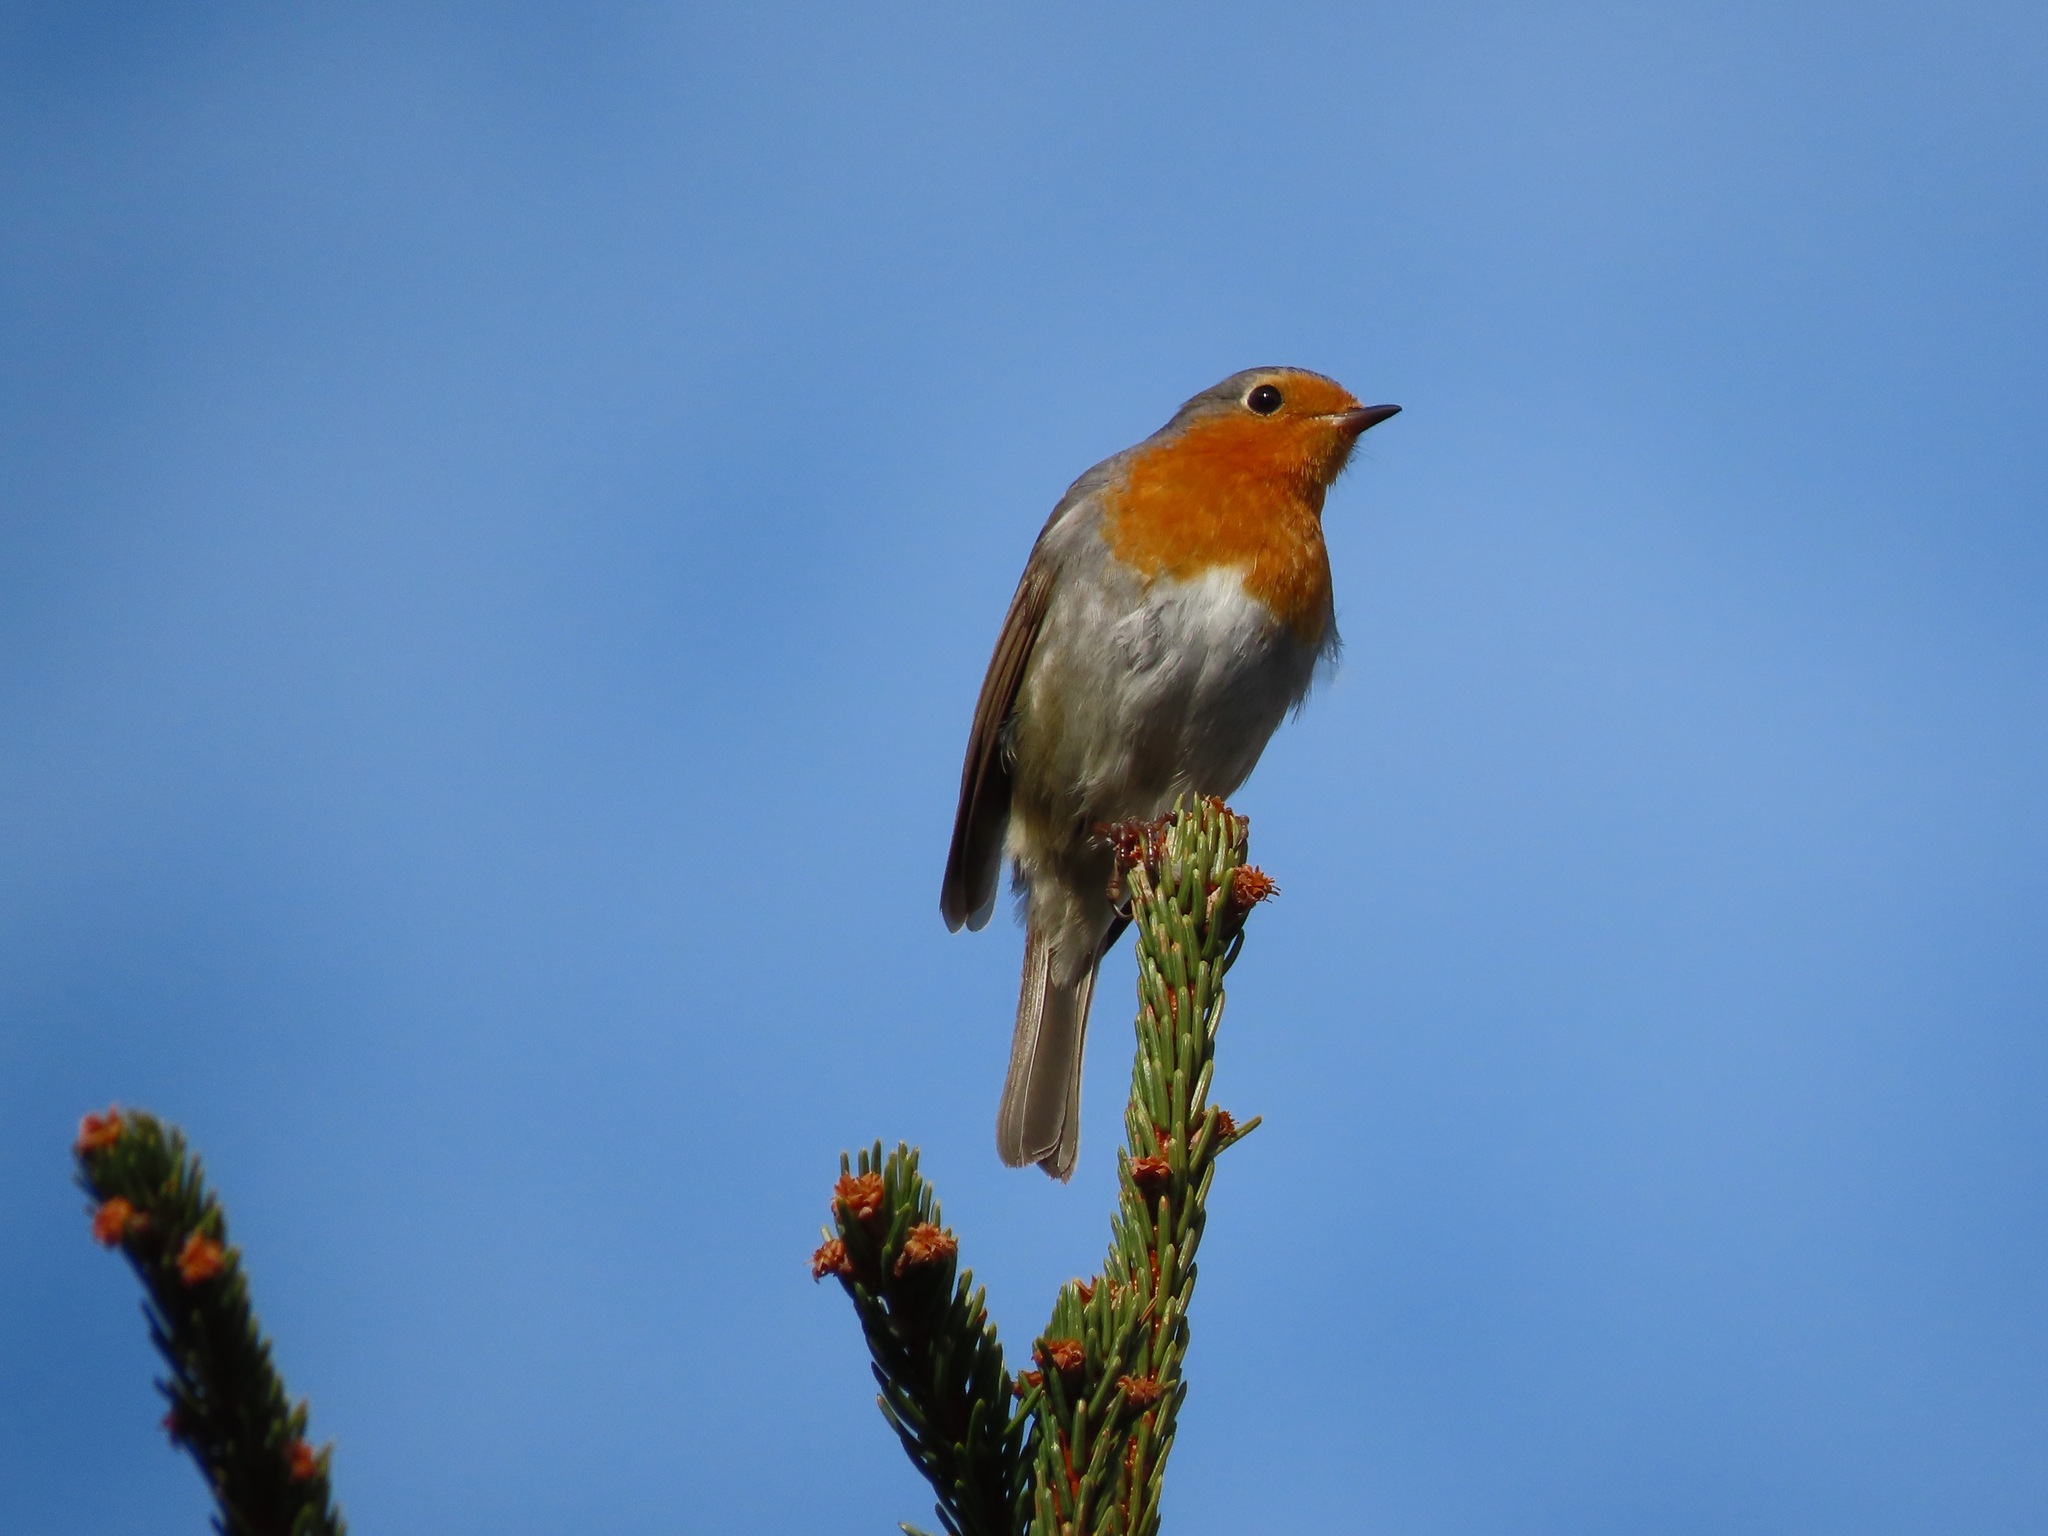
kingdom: Animalia
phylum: Chordata
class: Aves
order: Passeriformes
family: Muscicapidae
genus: Erithacus
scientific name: Erithacus rubecula
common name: European robin
